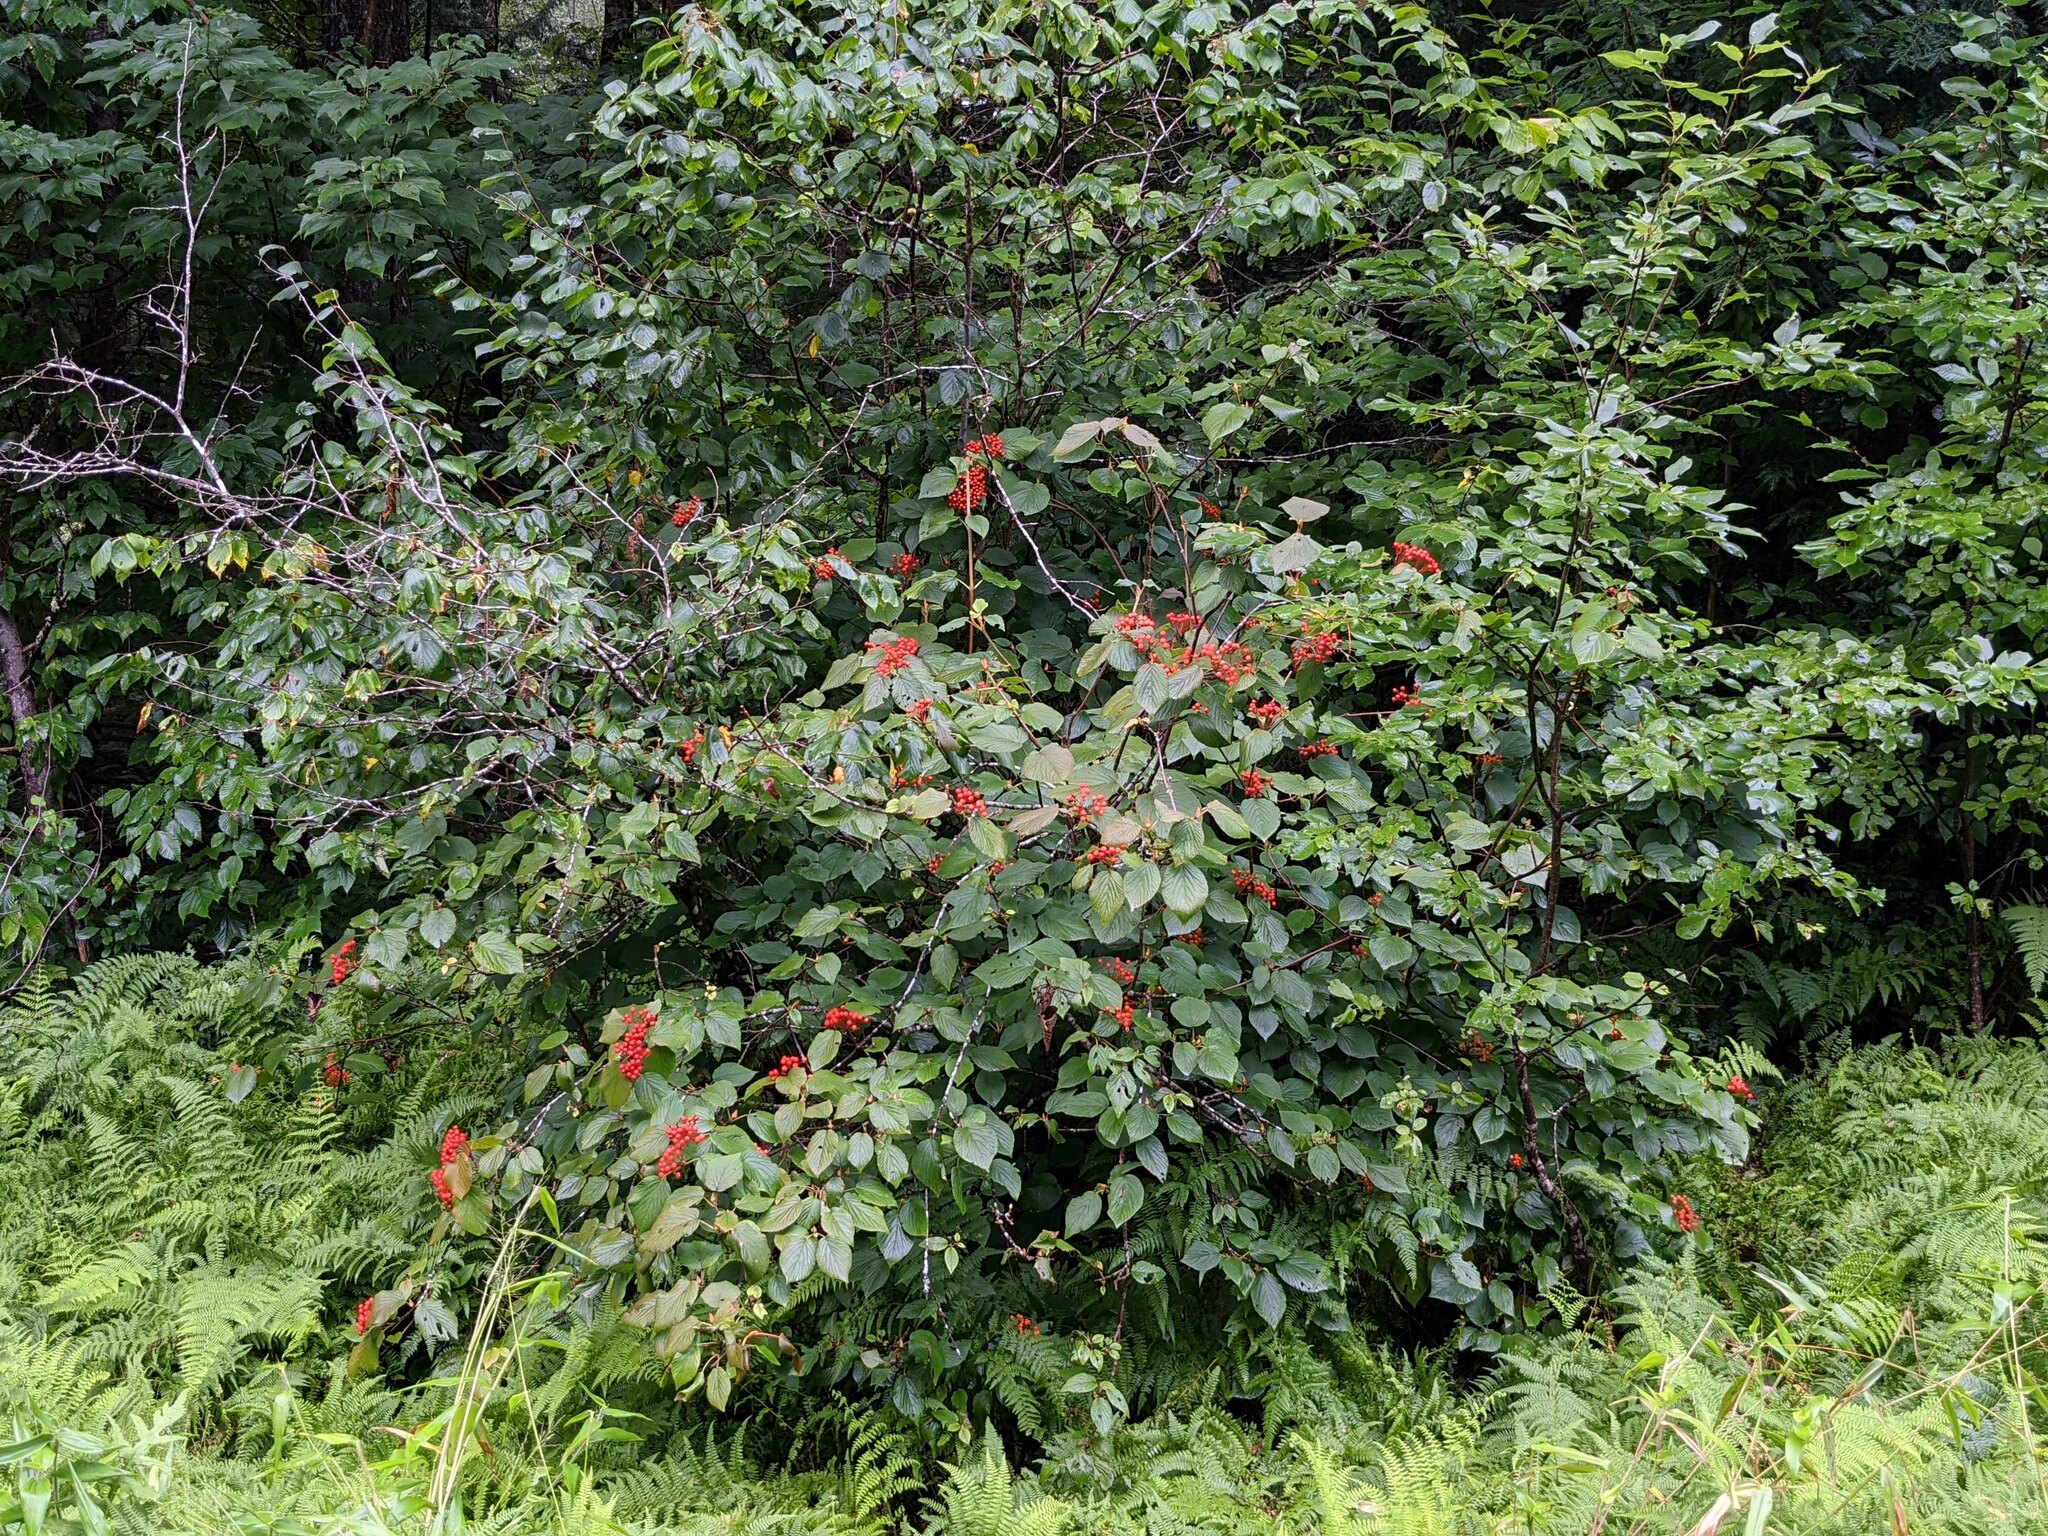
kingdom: Plantae
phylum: Tracheophyta
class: Magnoliopsida
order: Dipsacales
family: Viburnaceae
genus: Viburnum
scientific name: Viburnum lantanoides
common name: Hobblebush
